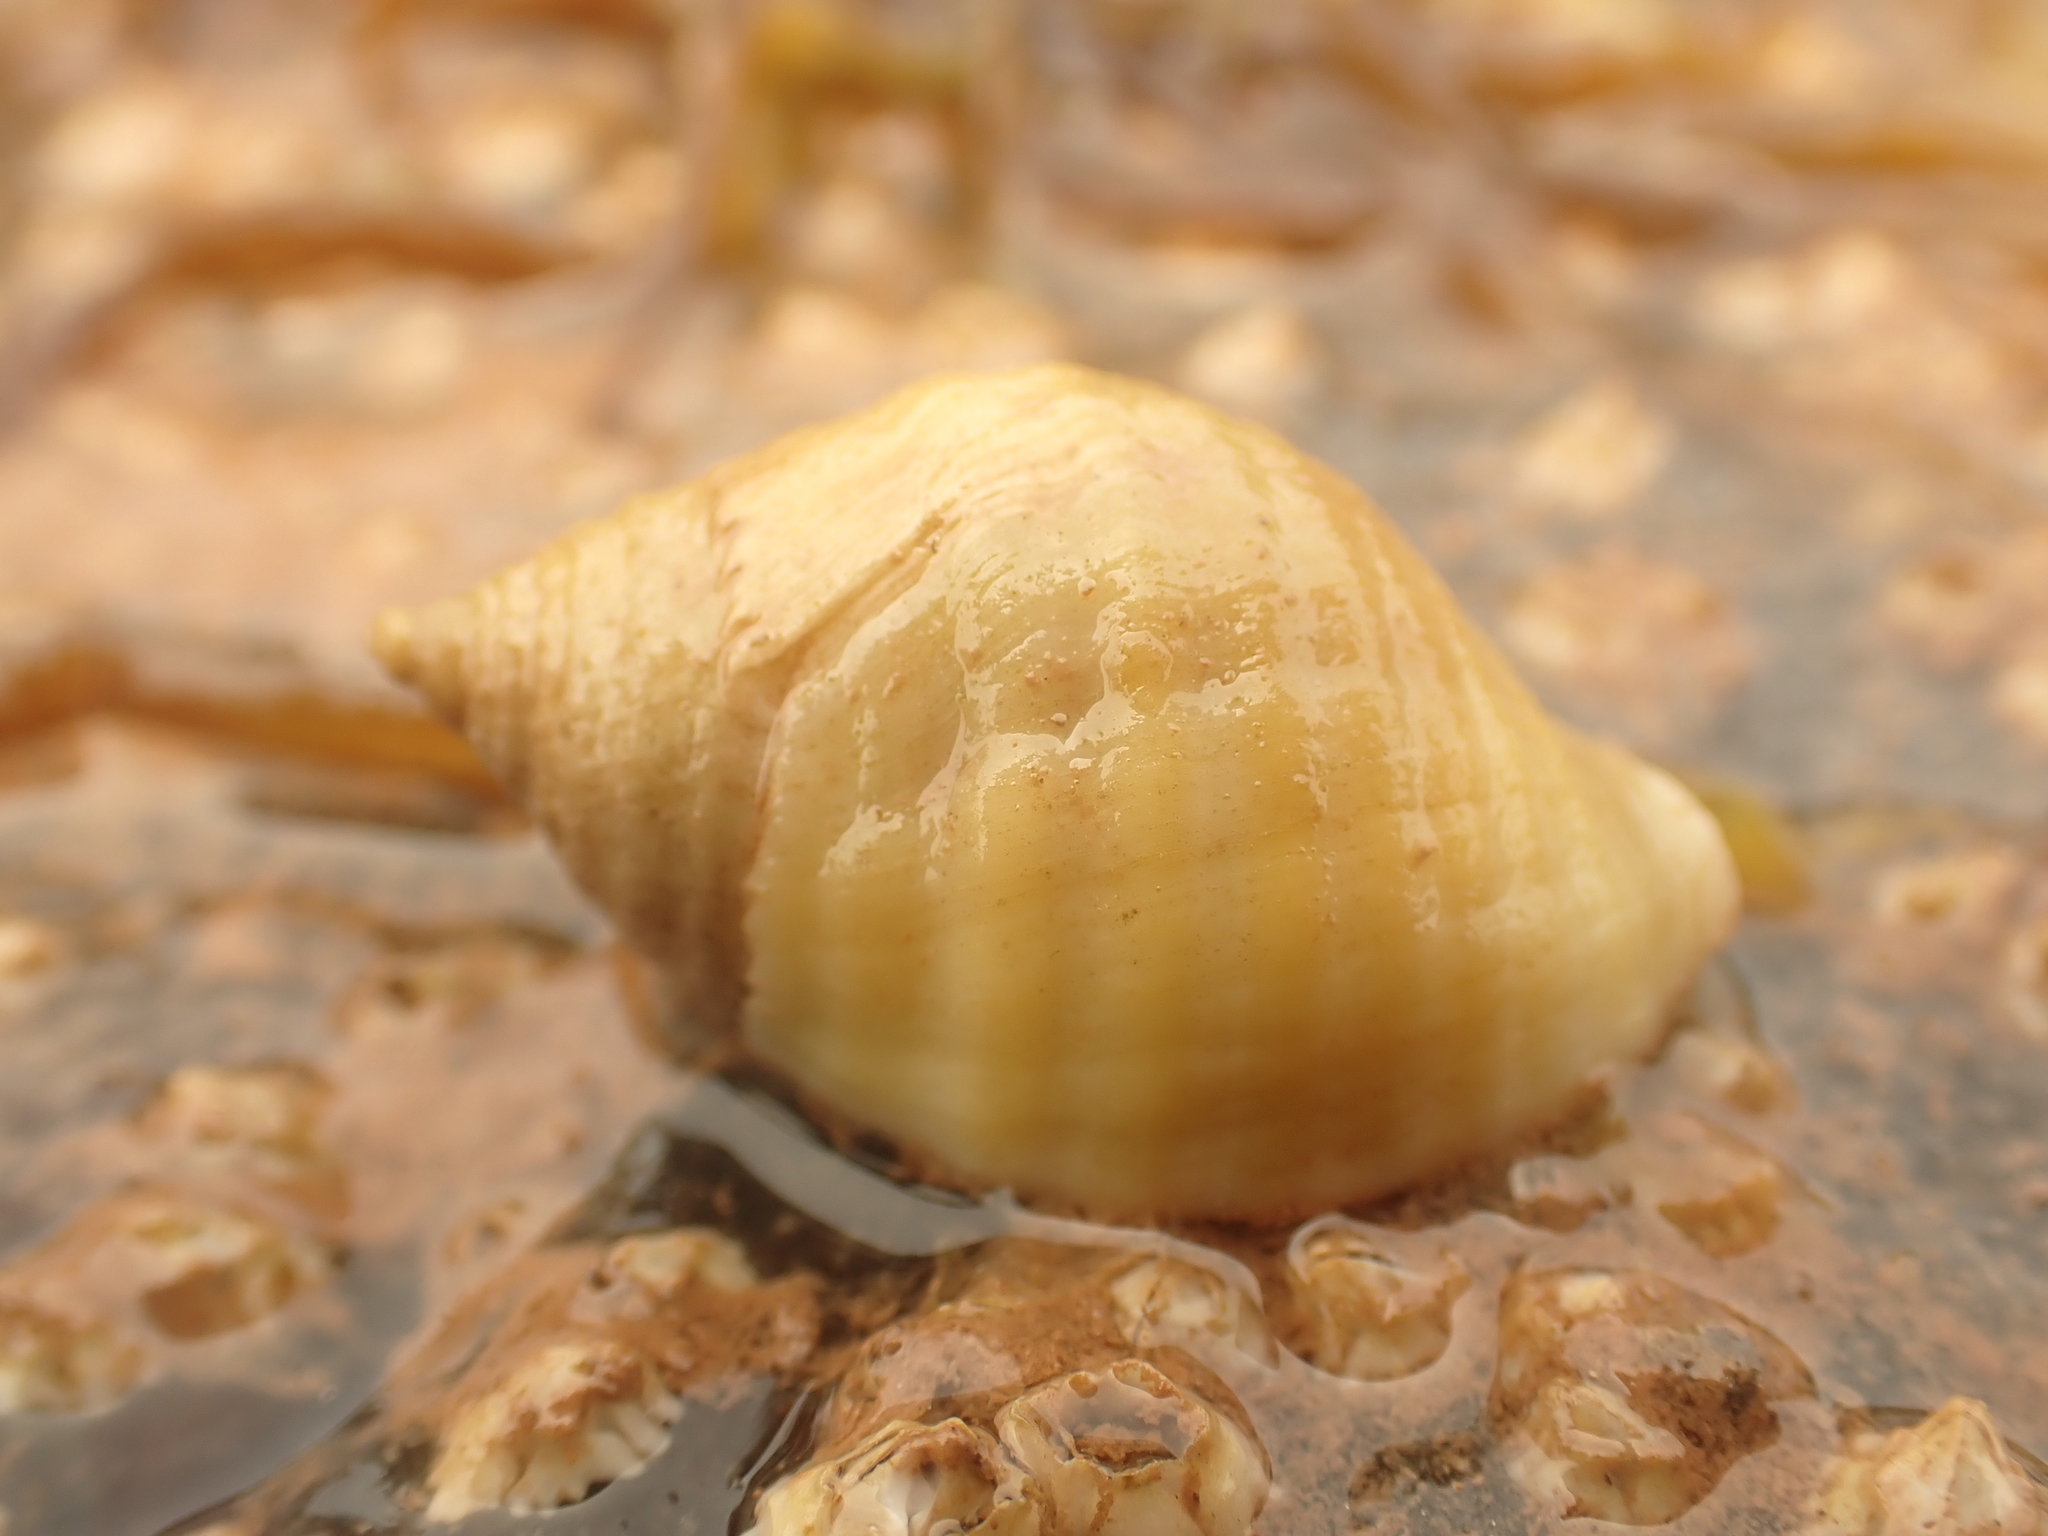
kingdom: Animalia
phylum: Mollusca
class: Gastropoda
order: Neogastropoda
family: Muricidae
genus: Nucella
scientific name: Nucella lapillus
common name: Dog whelk
